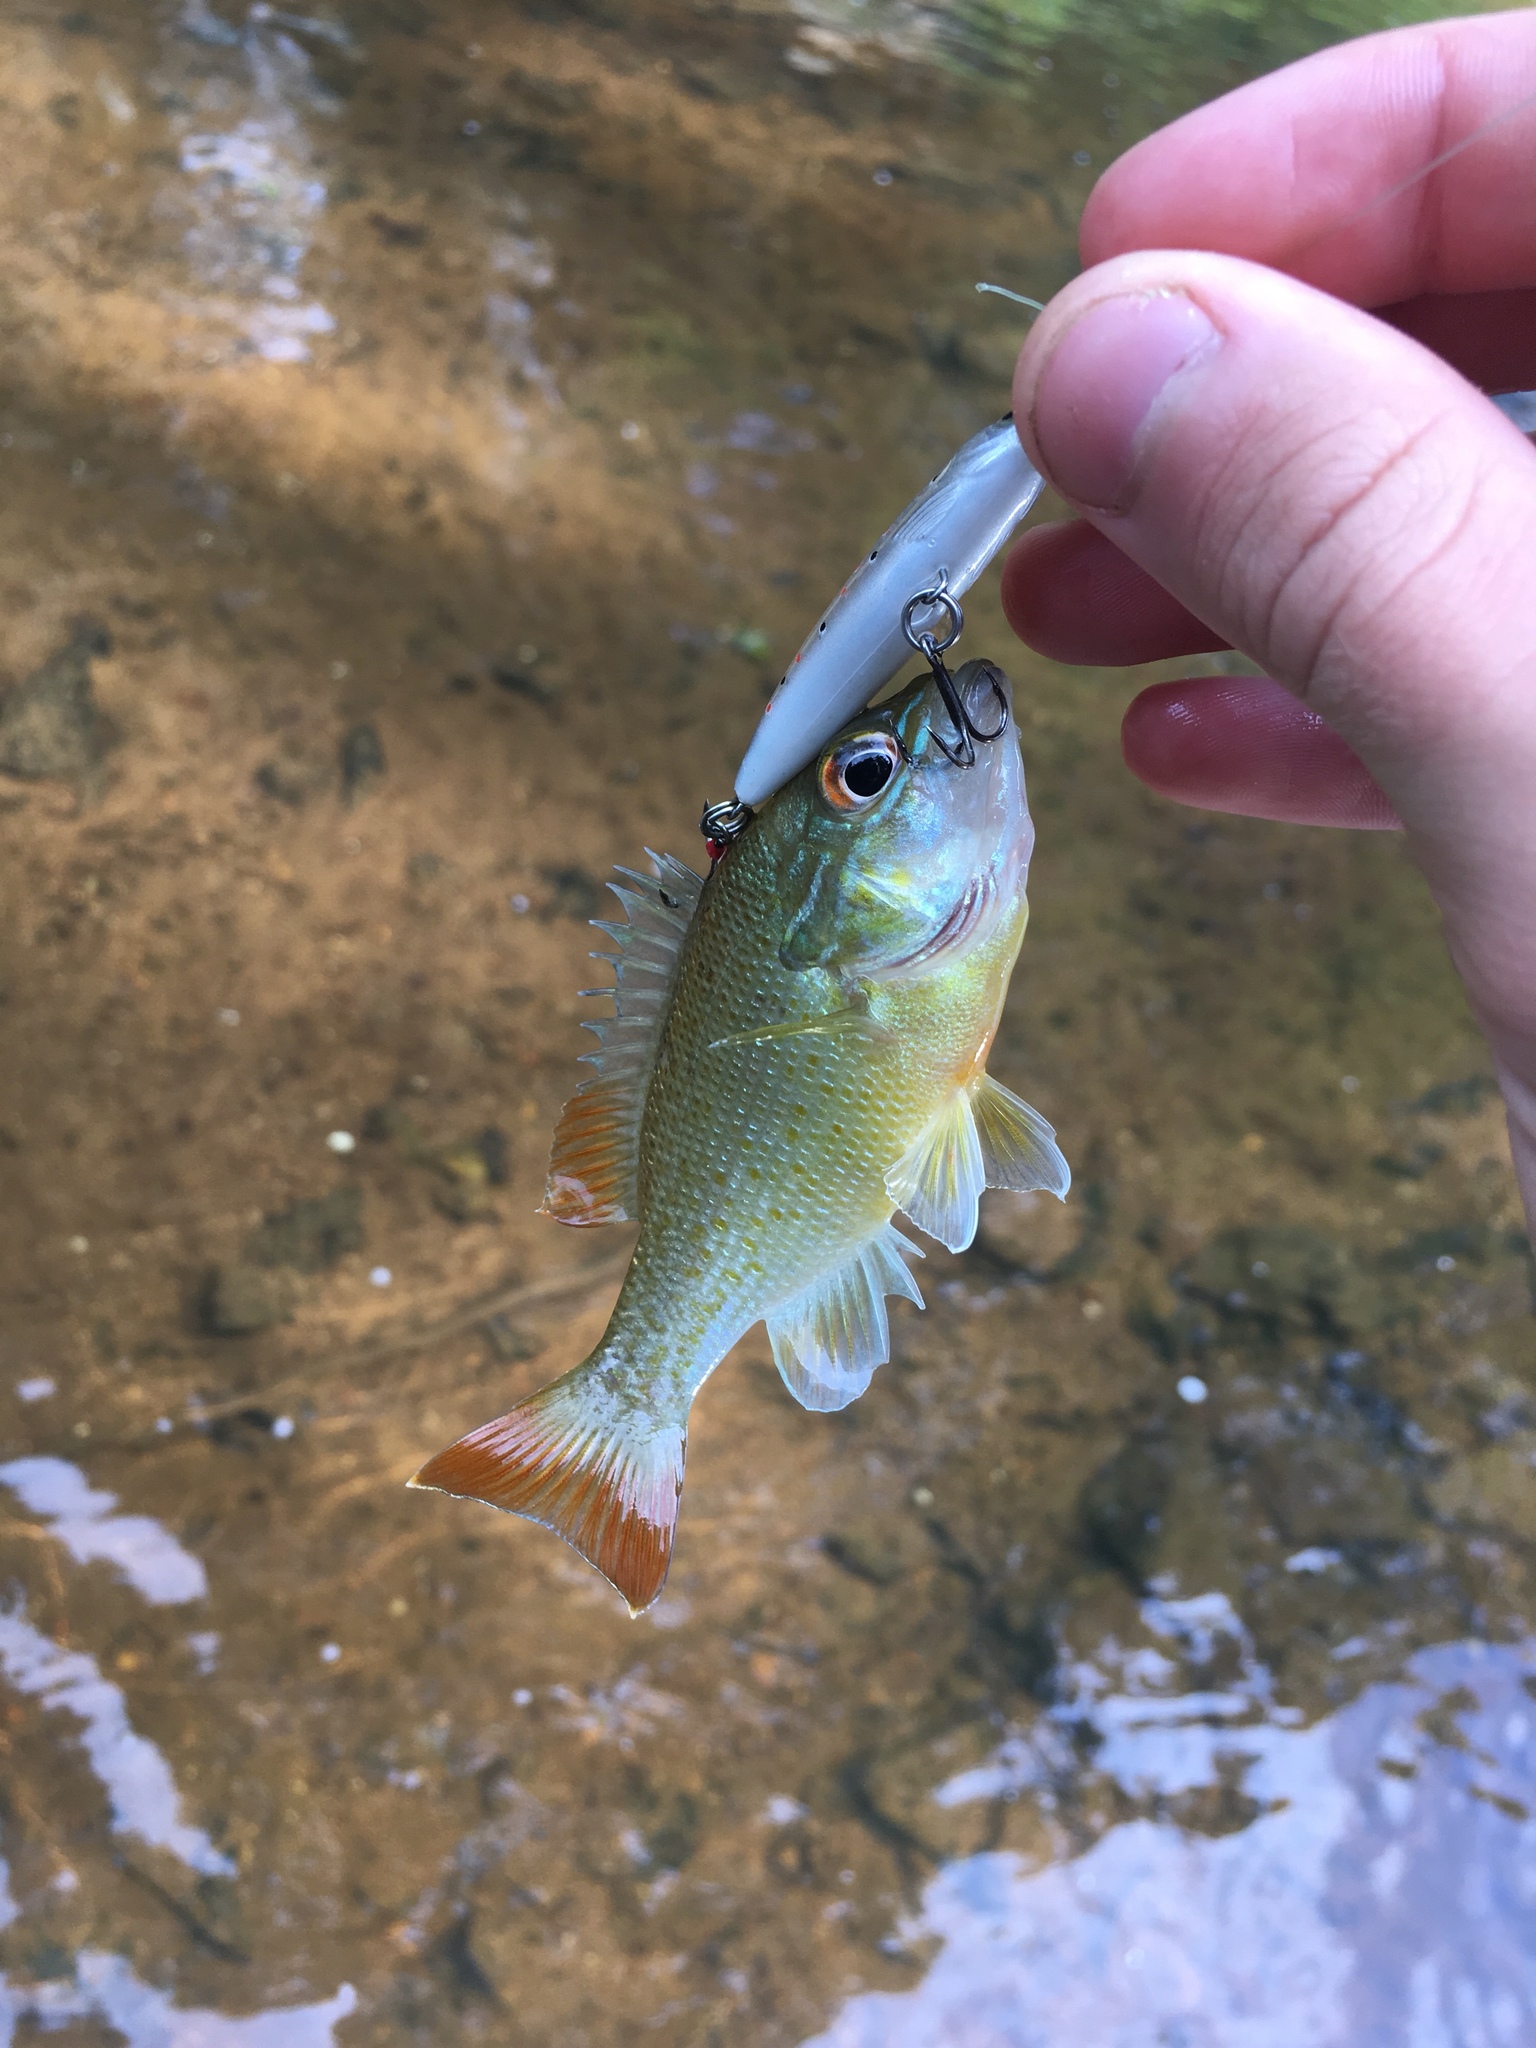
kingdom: Animalia
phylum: Chordata
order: Perciformes
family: Centrarchidae
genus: Lepomis
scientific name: Lepomis auritus
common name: Redbreast sunfish
